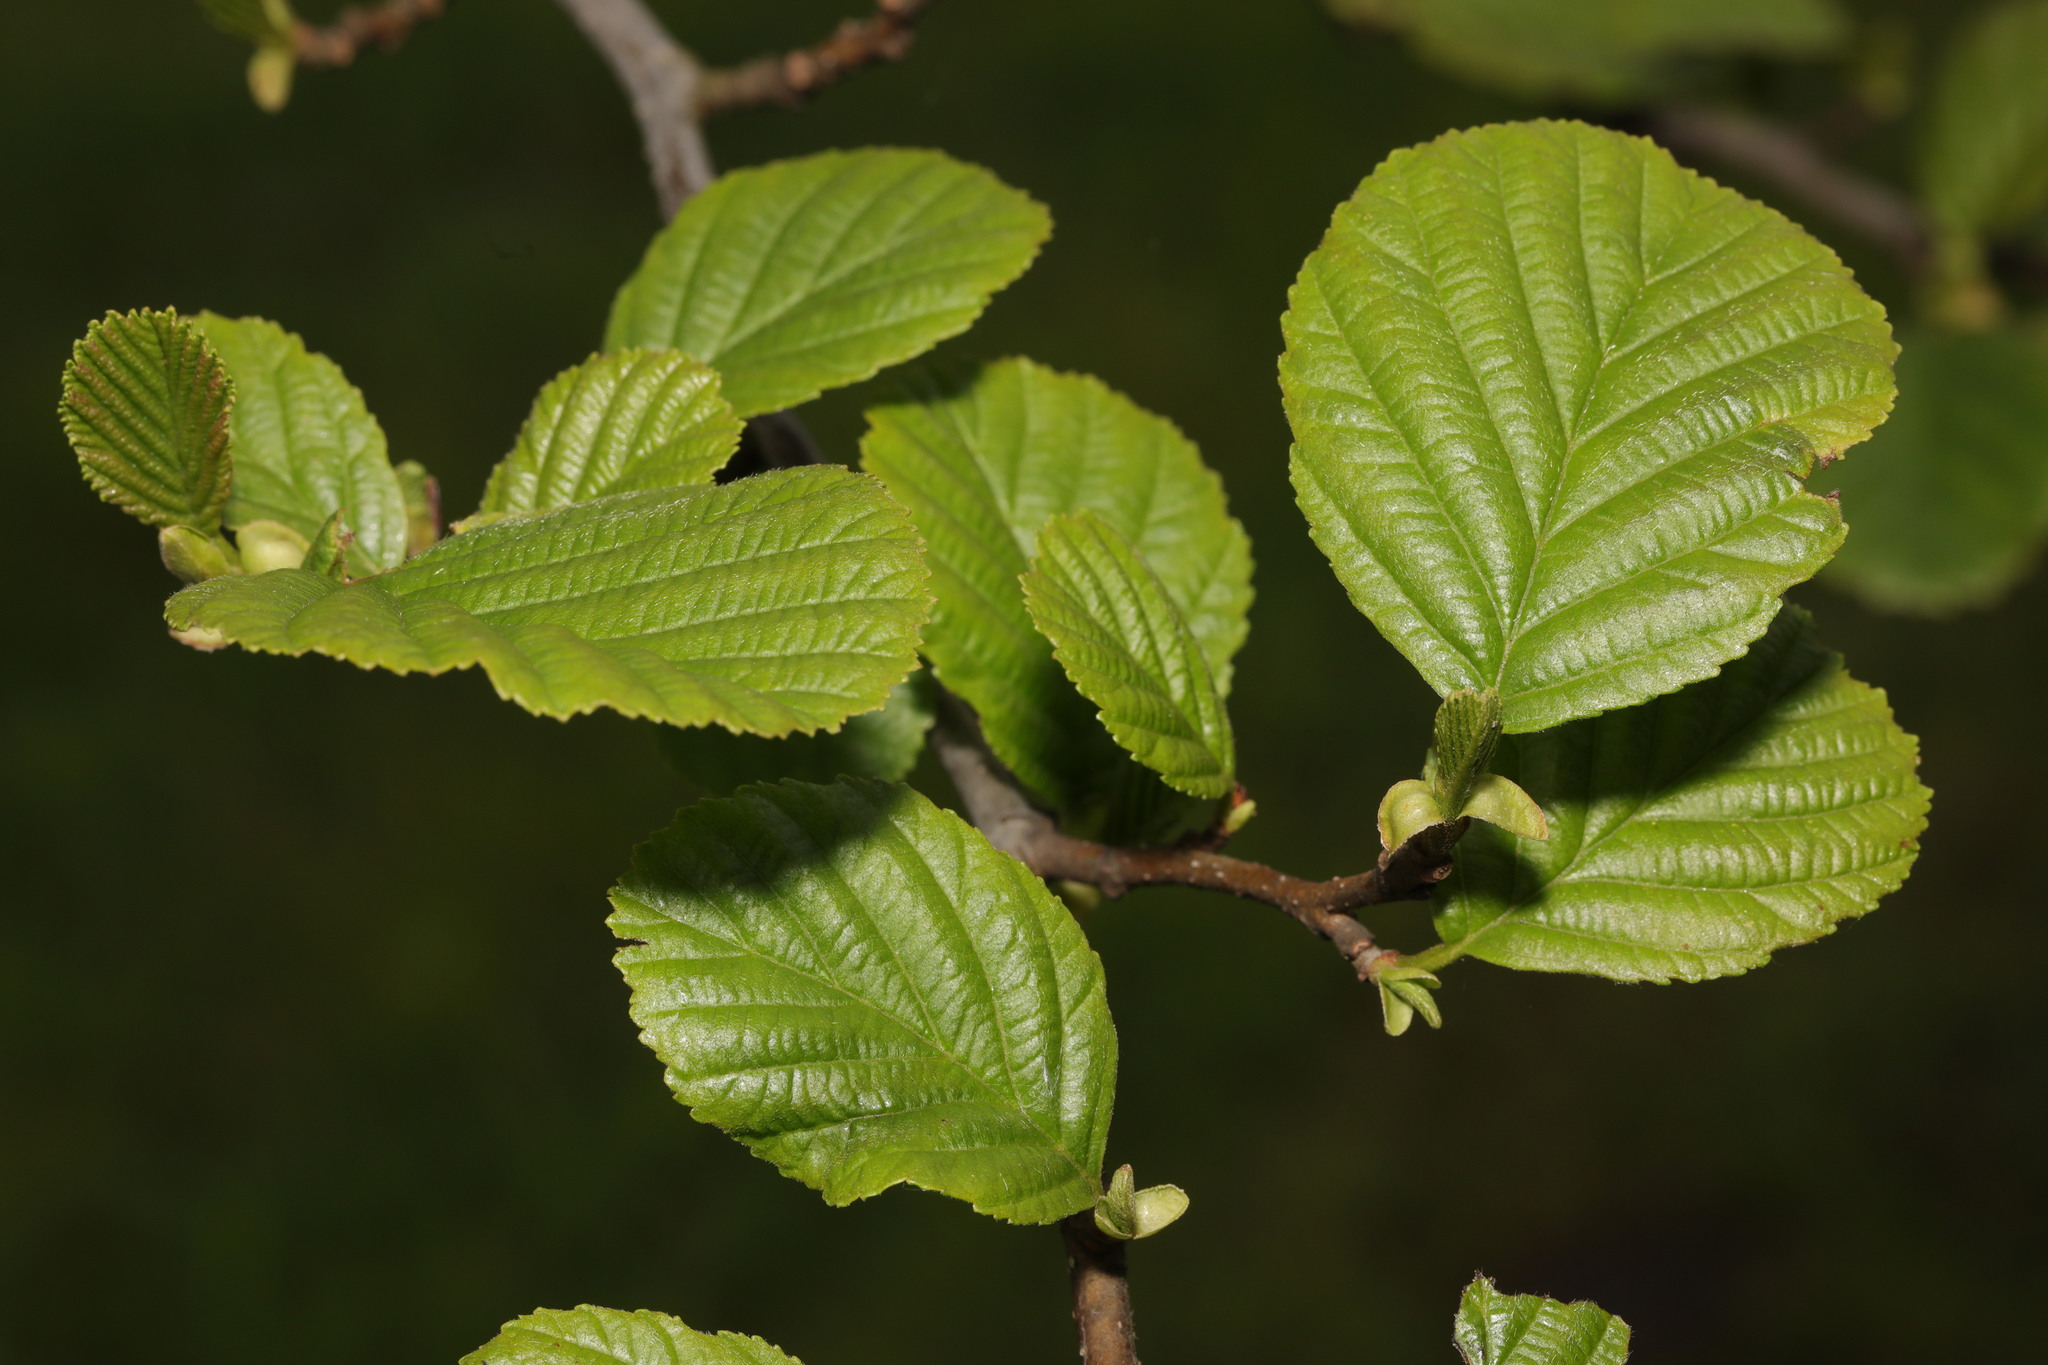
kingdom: Plantae
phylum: Tracheophyta
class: Magnoliopsida
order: Fagales
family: Betulaceae
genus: Alnus
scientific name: Alnus glutinosa
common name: Black alder
